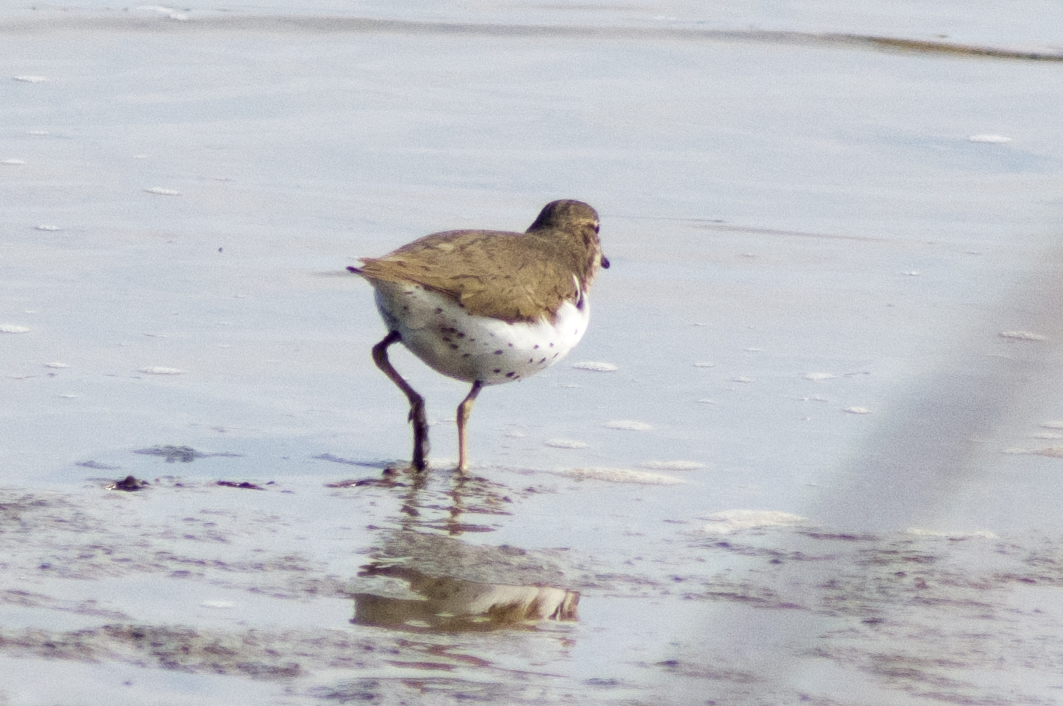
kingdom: Animalia
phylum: Chordata
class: Aves
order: Charadriiformes
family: Scolopacidae
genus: Actitis
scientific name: Actitis macularius
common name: Spotted sandpiper
